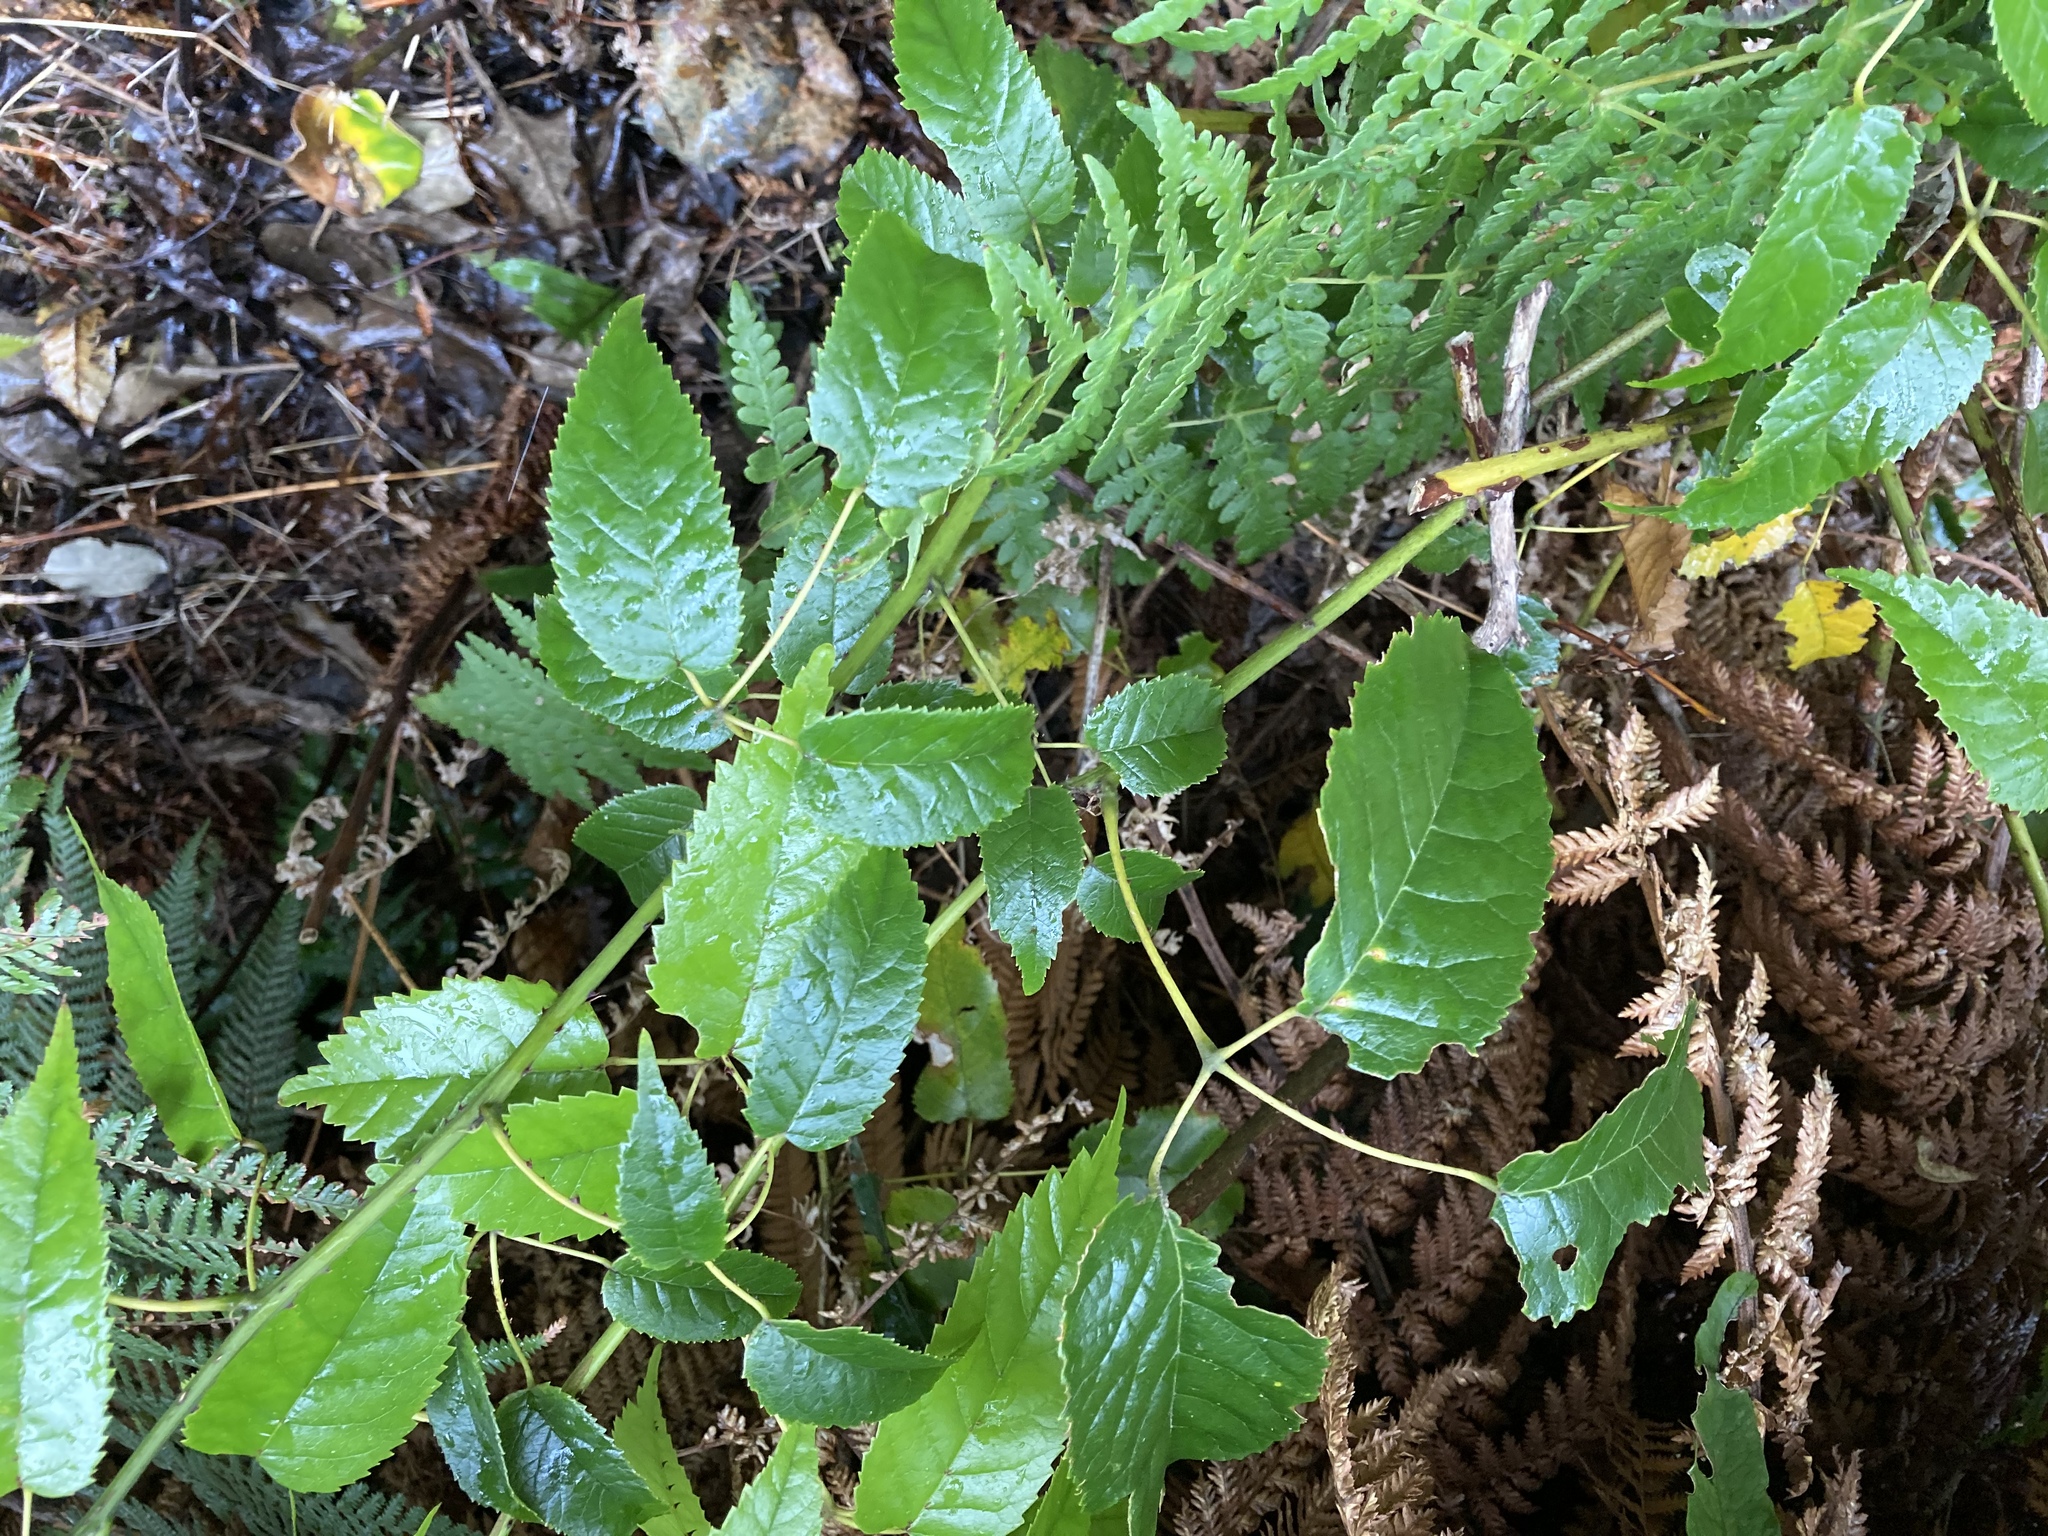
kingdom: Plantae
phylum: Tracheophyta
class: Magnoliopsida
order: Rosales
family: Rosaceae
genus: Rubus
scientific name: Rubus cissoides
